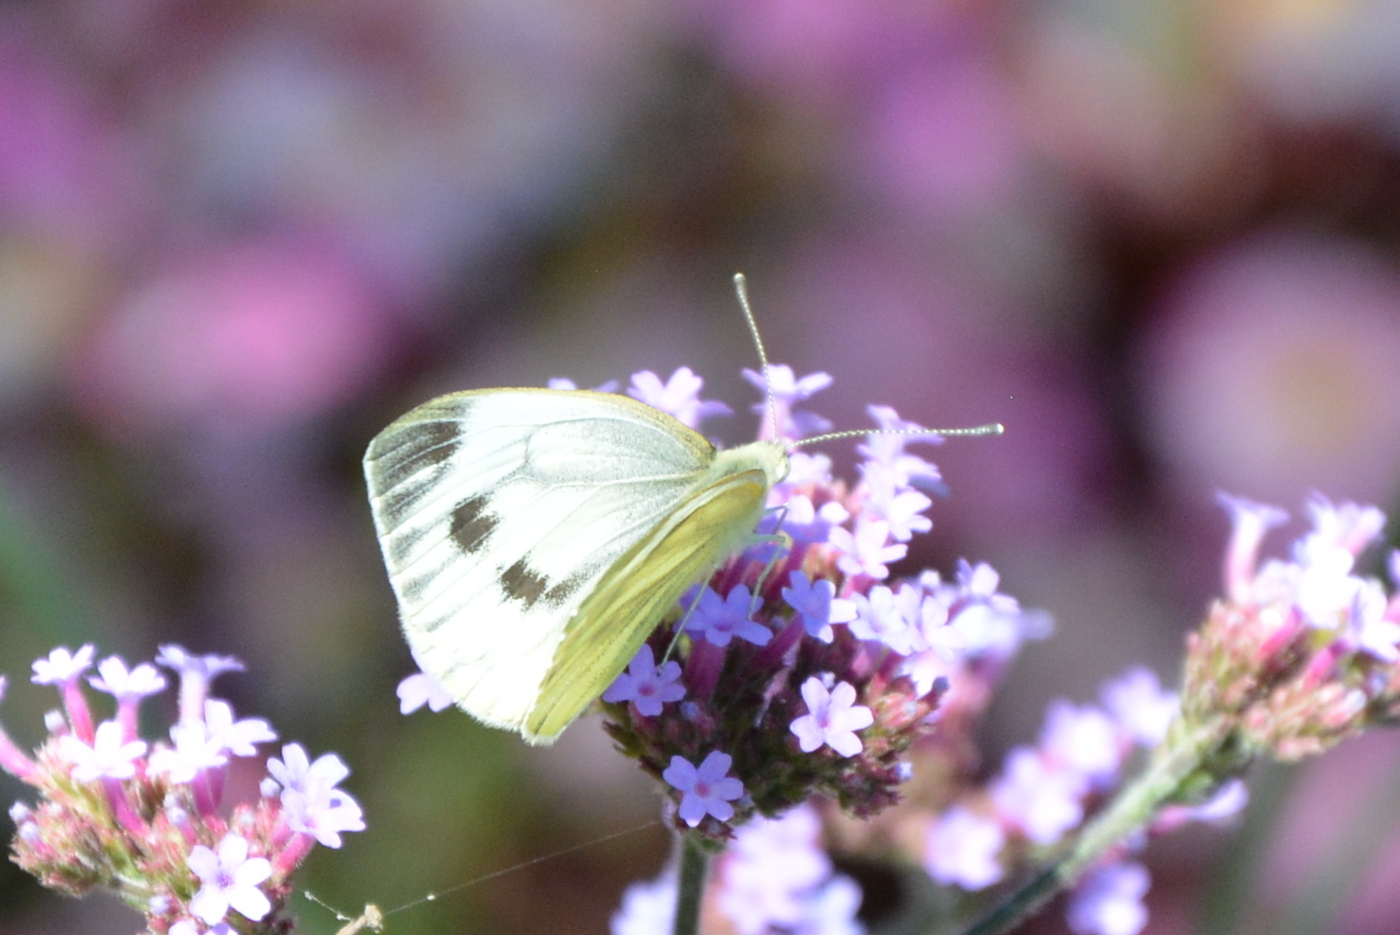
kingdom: Animalia
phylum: Arthropoda
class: Insecta
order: Lepidoptera
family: Pieridae
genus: Pieris
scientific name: Pieris napi
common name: Green-veined white
